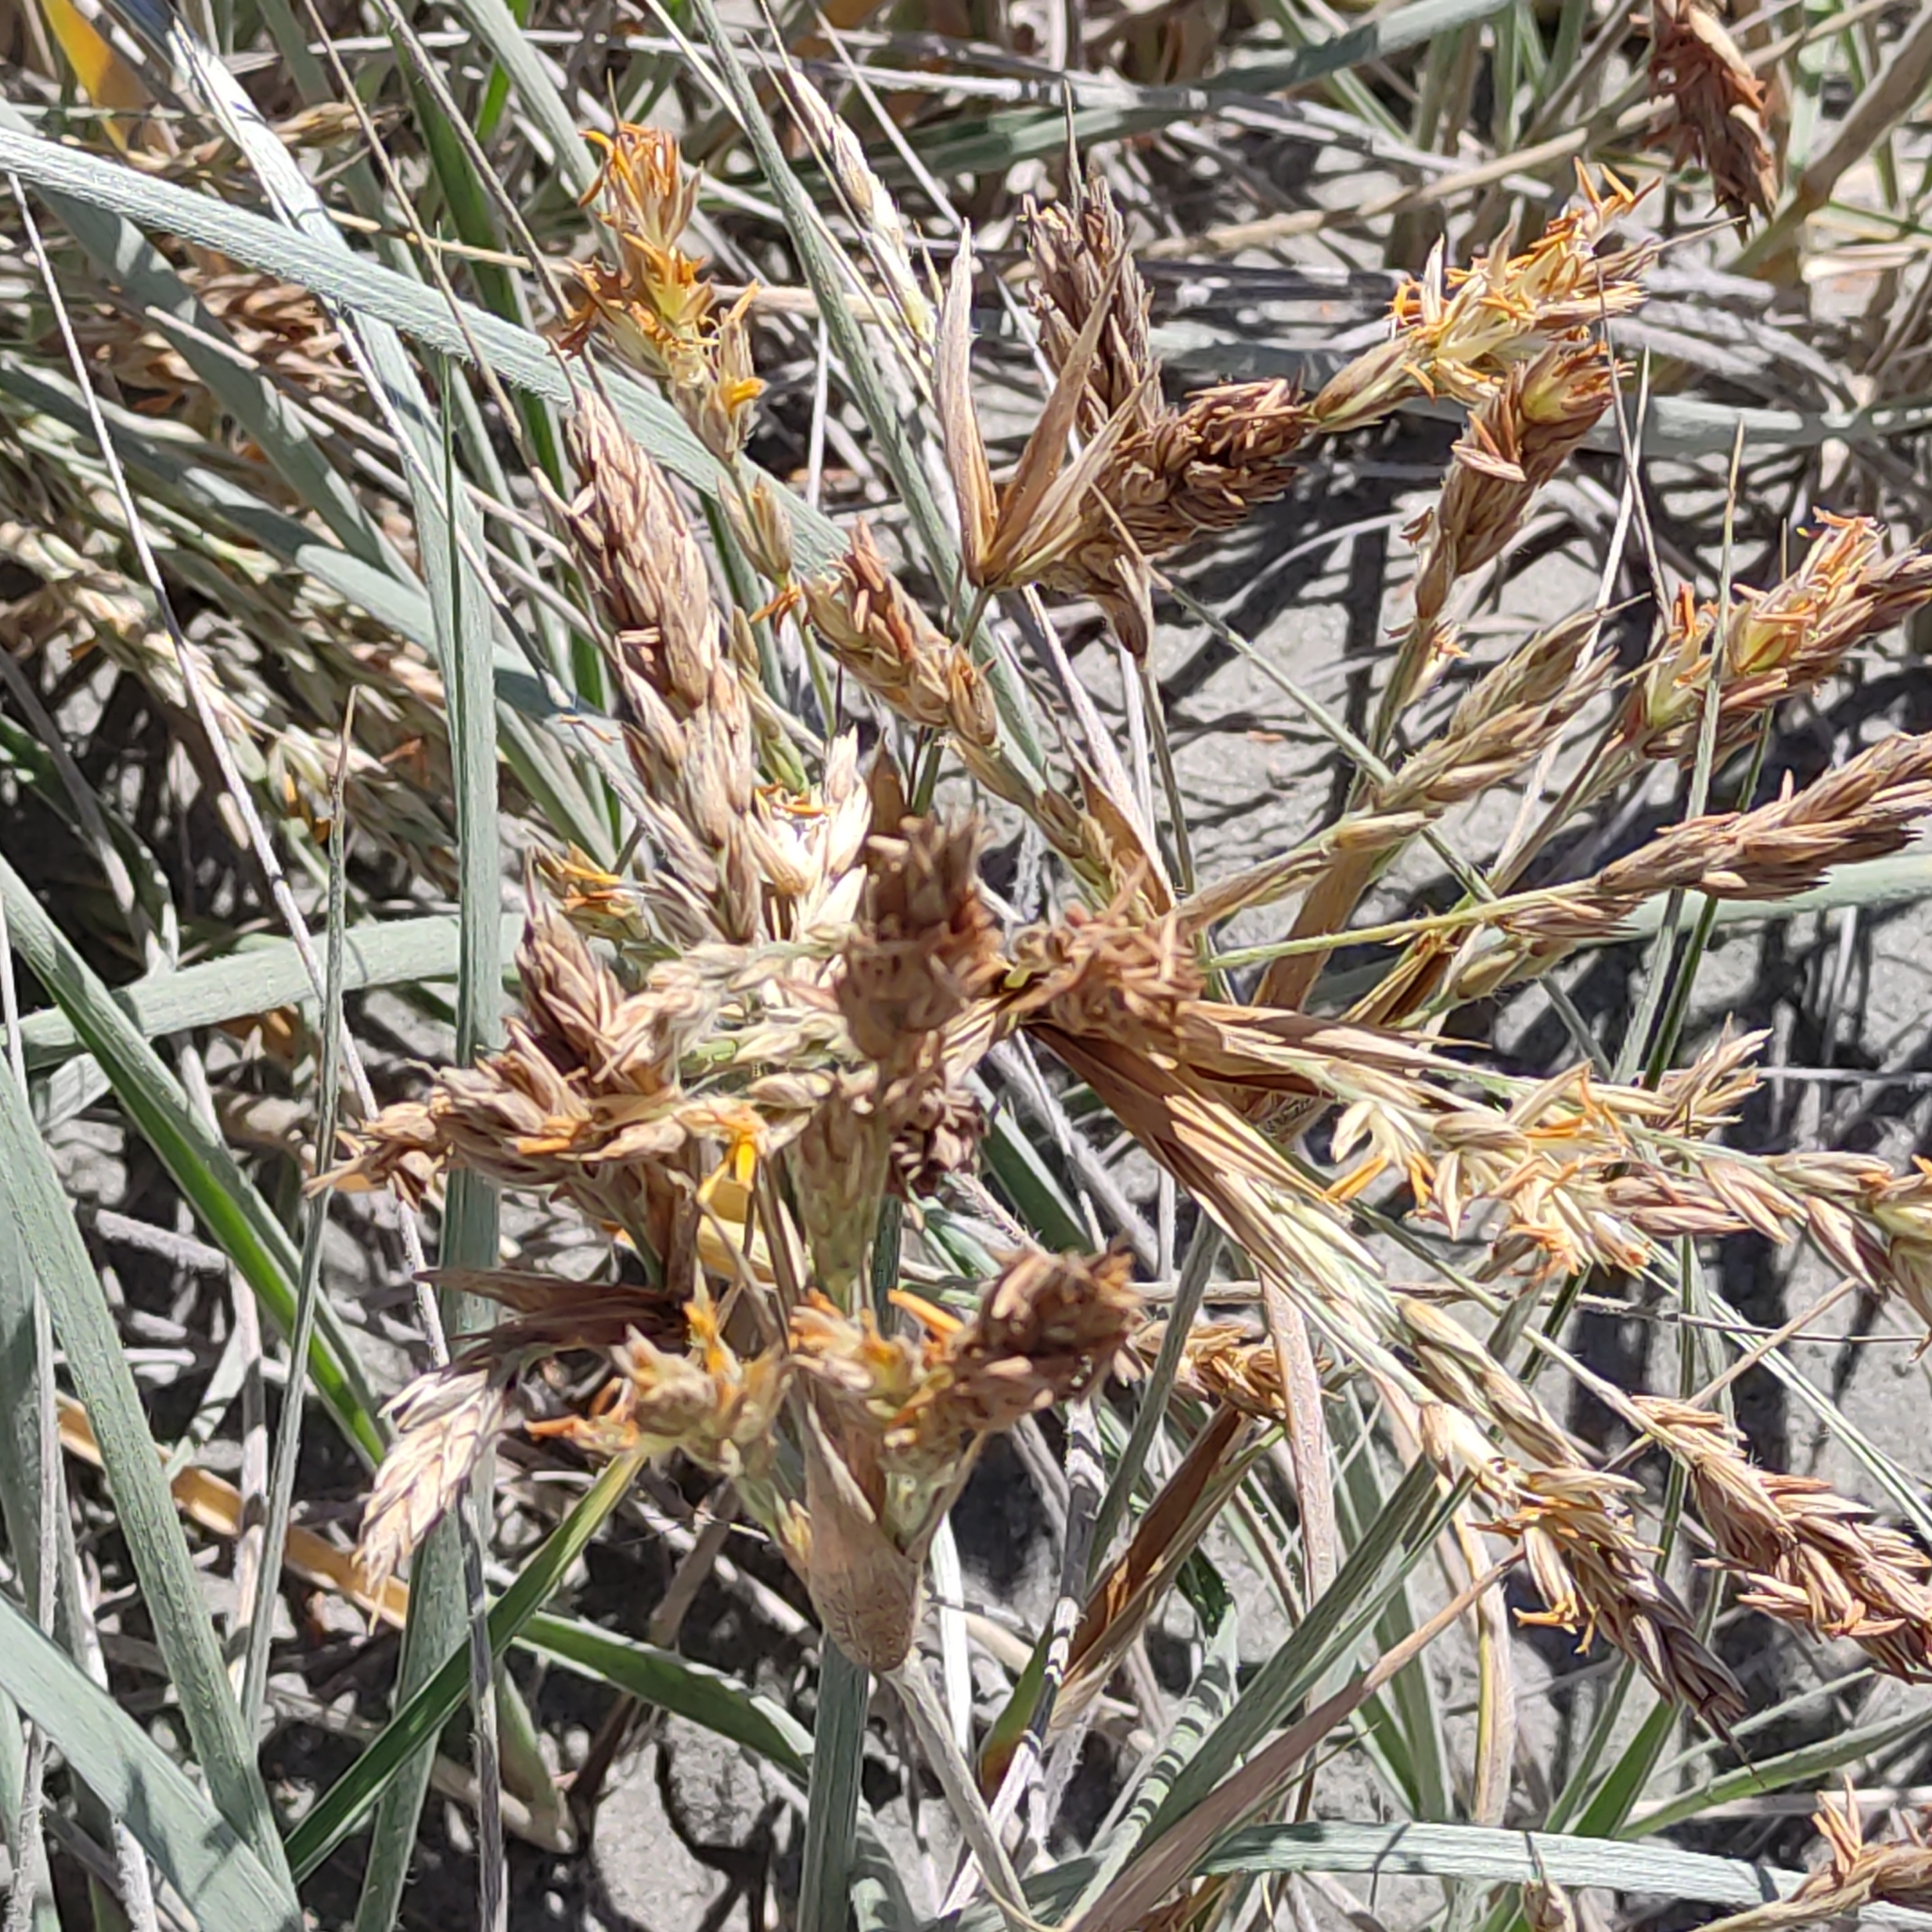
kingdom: Plantae
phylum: Tracheophyta
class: Liliopsida
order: Poales
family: Poaceae
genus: Spinifex
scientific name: Spinifex sericeus
